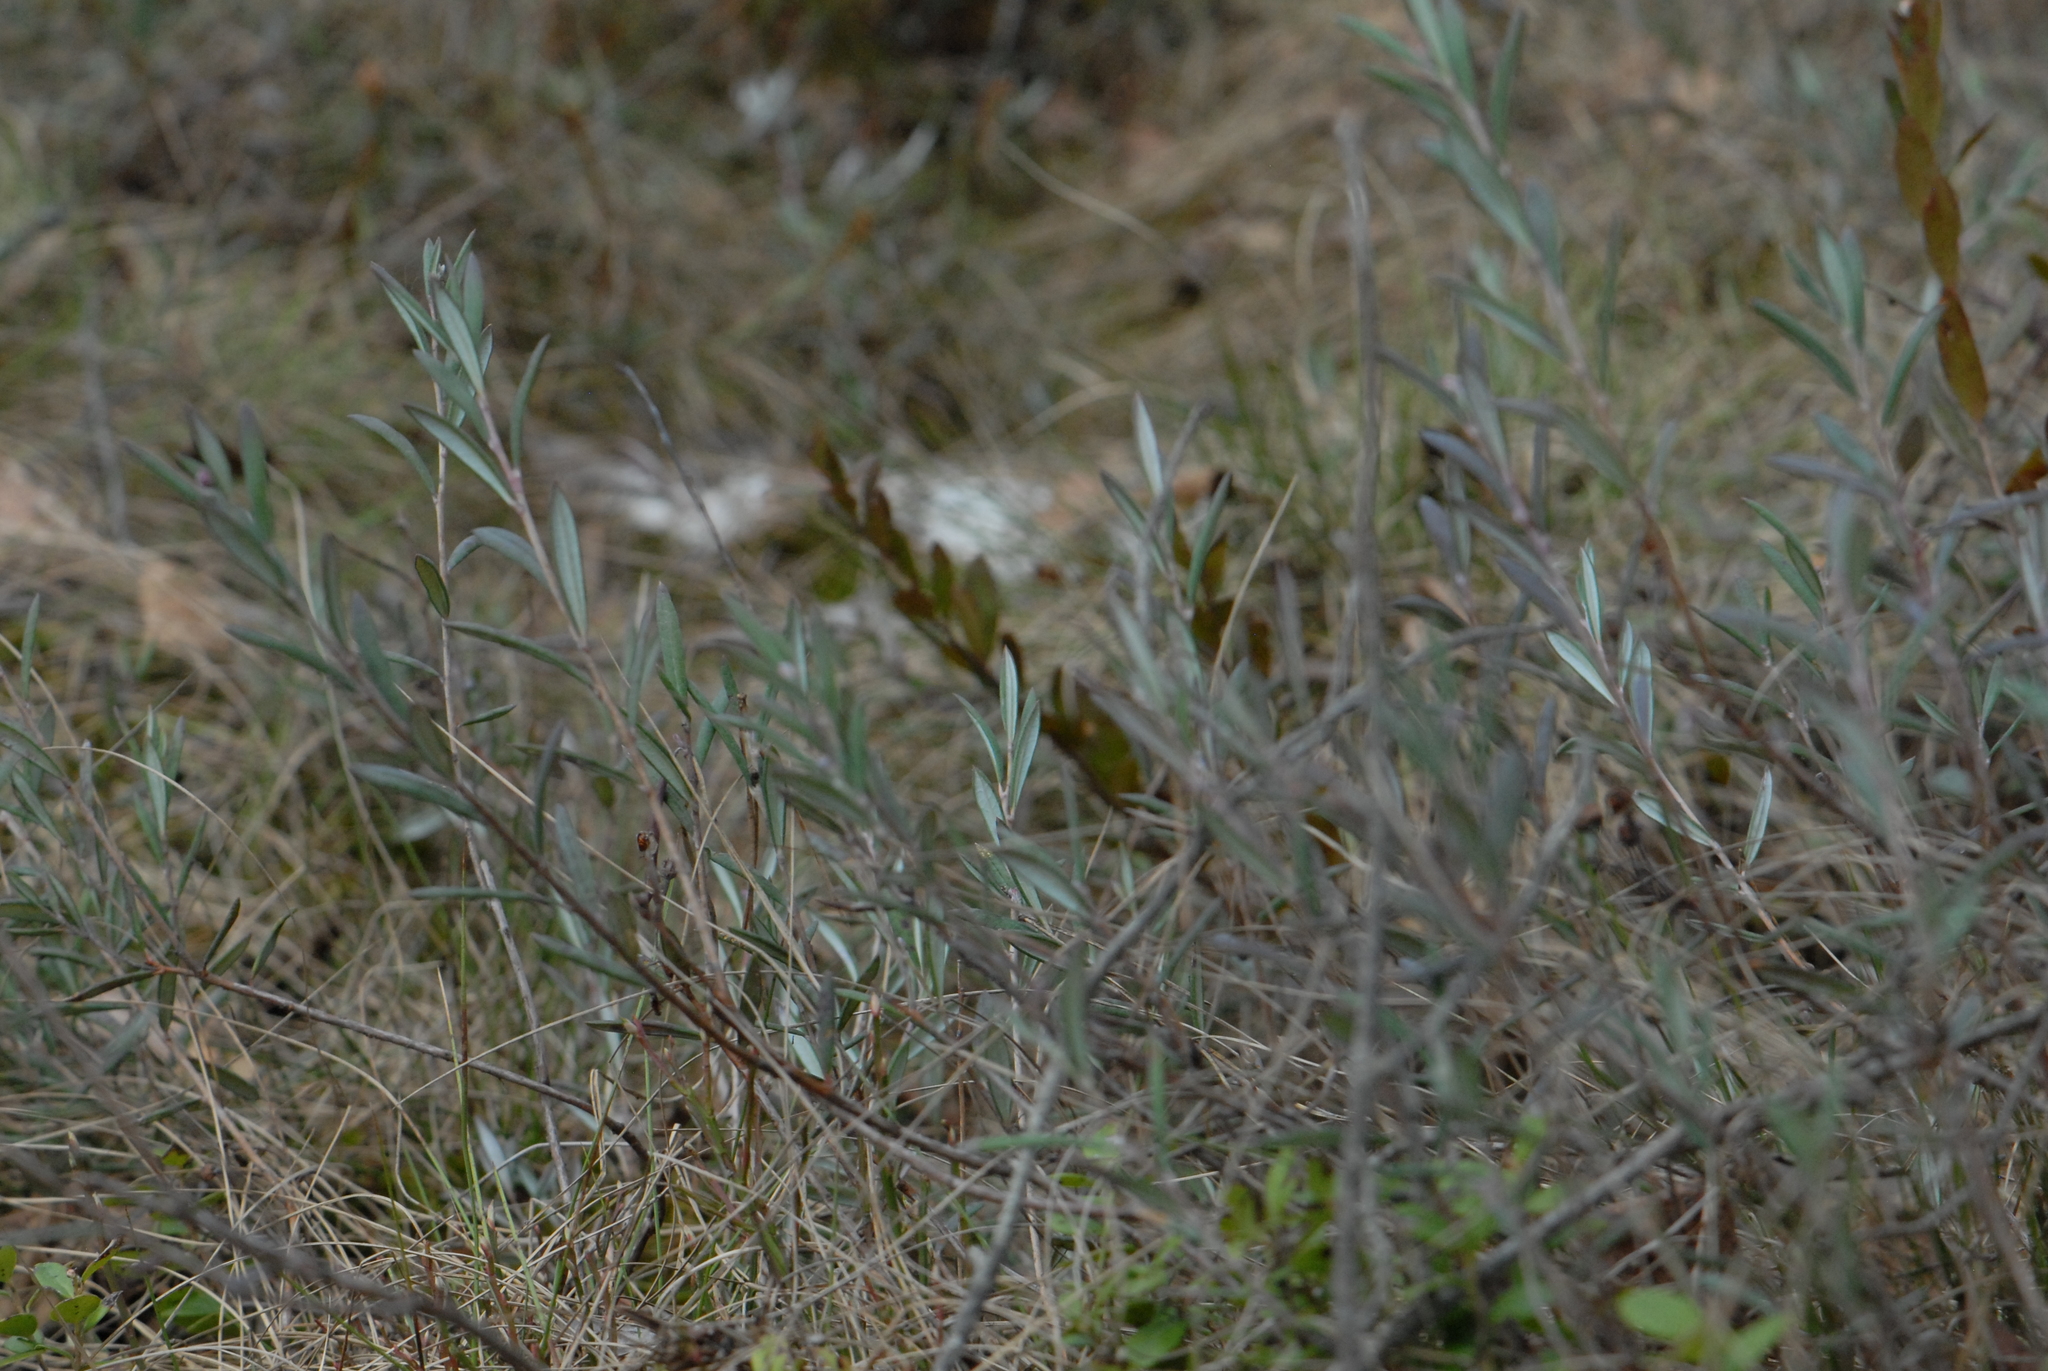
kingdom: Plantae
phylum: Tracheophyta
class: Magnoliopsida
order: Ericales
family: Ericaceae
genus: Andromeda
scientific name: Andromeda polifolia
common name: Bog-rosemary
